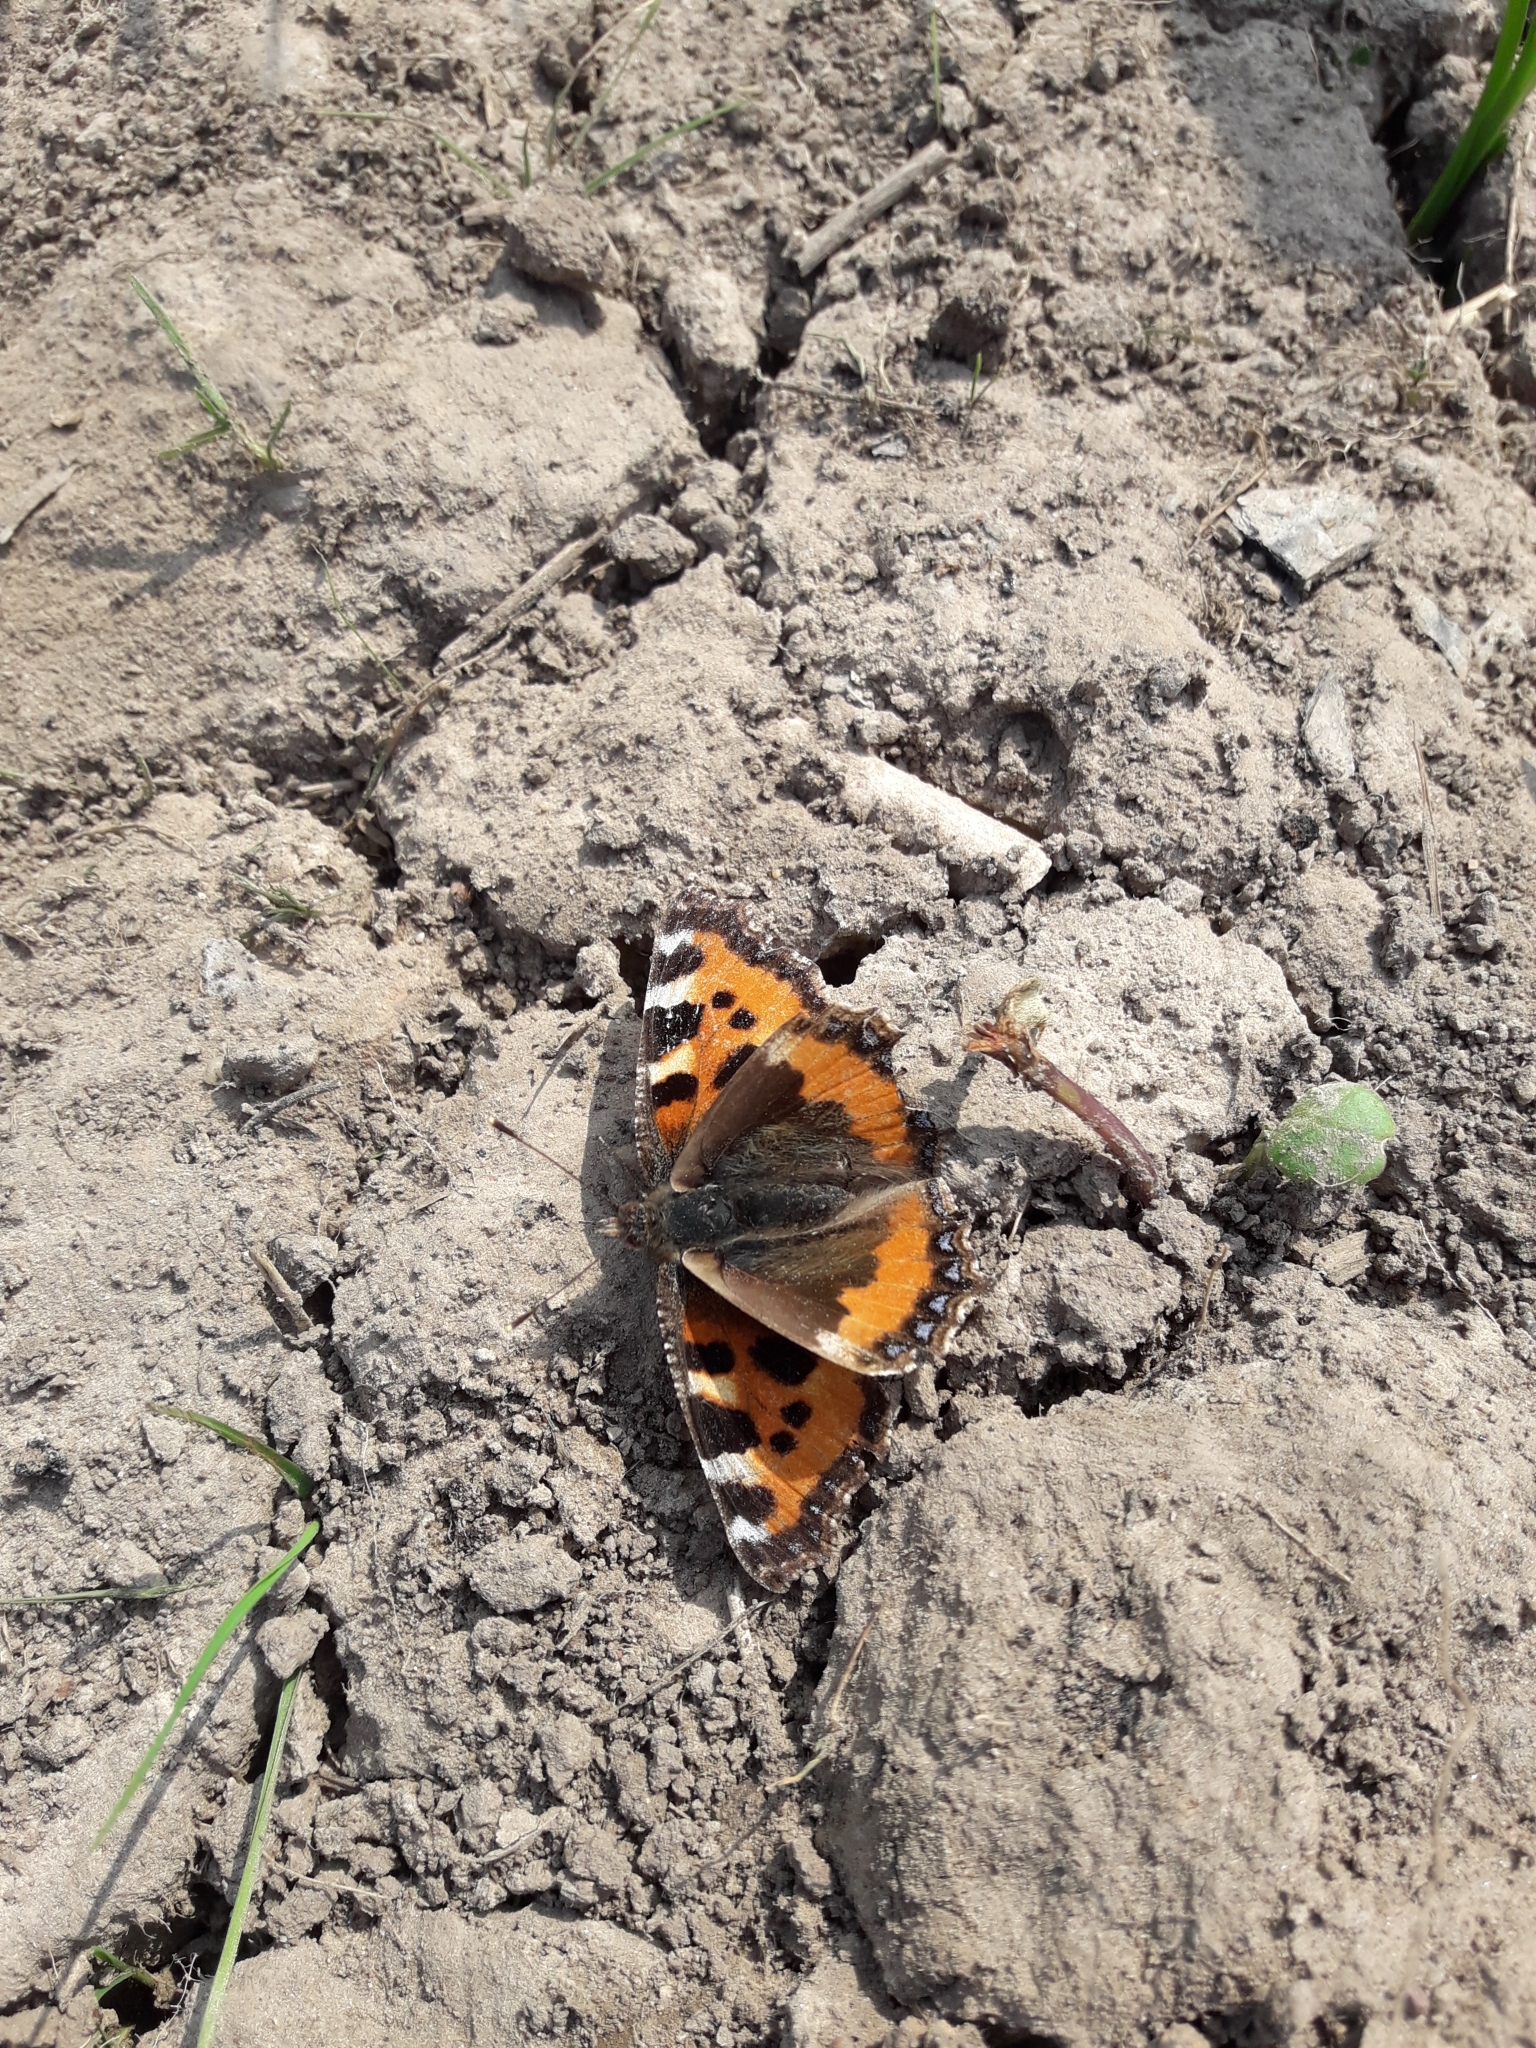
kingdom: Animalia
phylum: Arthropoda
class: Insecta
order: Lepidoptera
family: Nymphalidae
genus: Aglais
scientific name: Aglais urticae
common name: Small tortoiseshell
